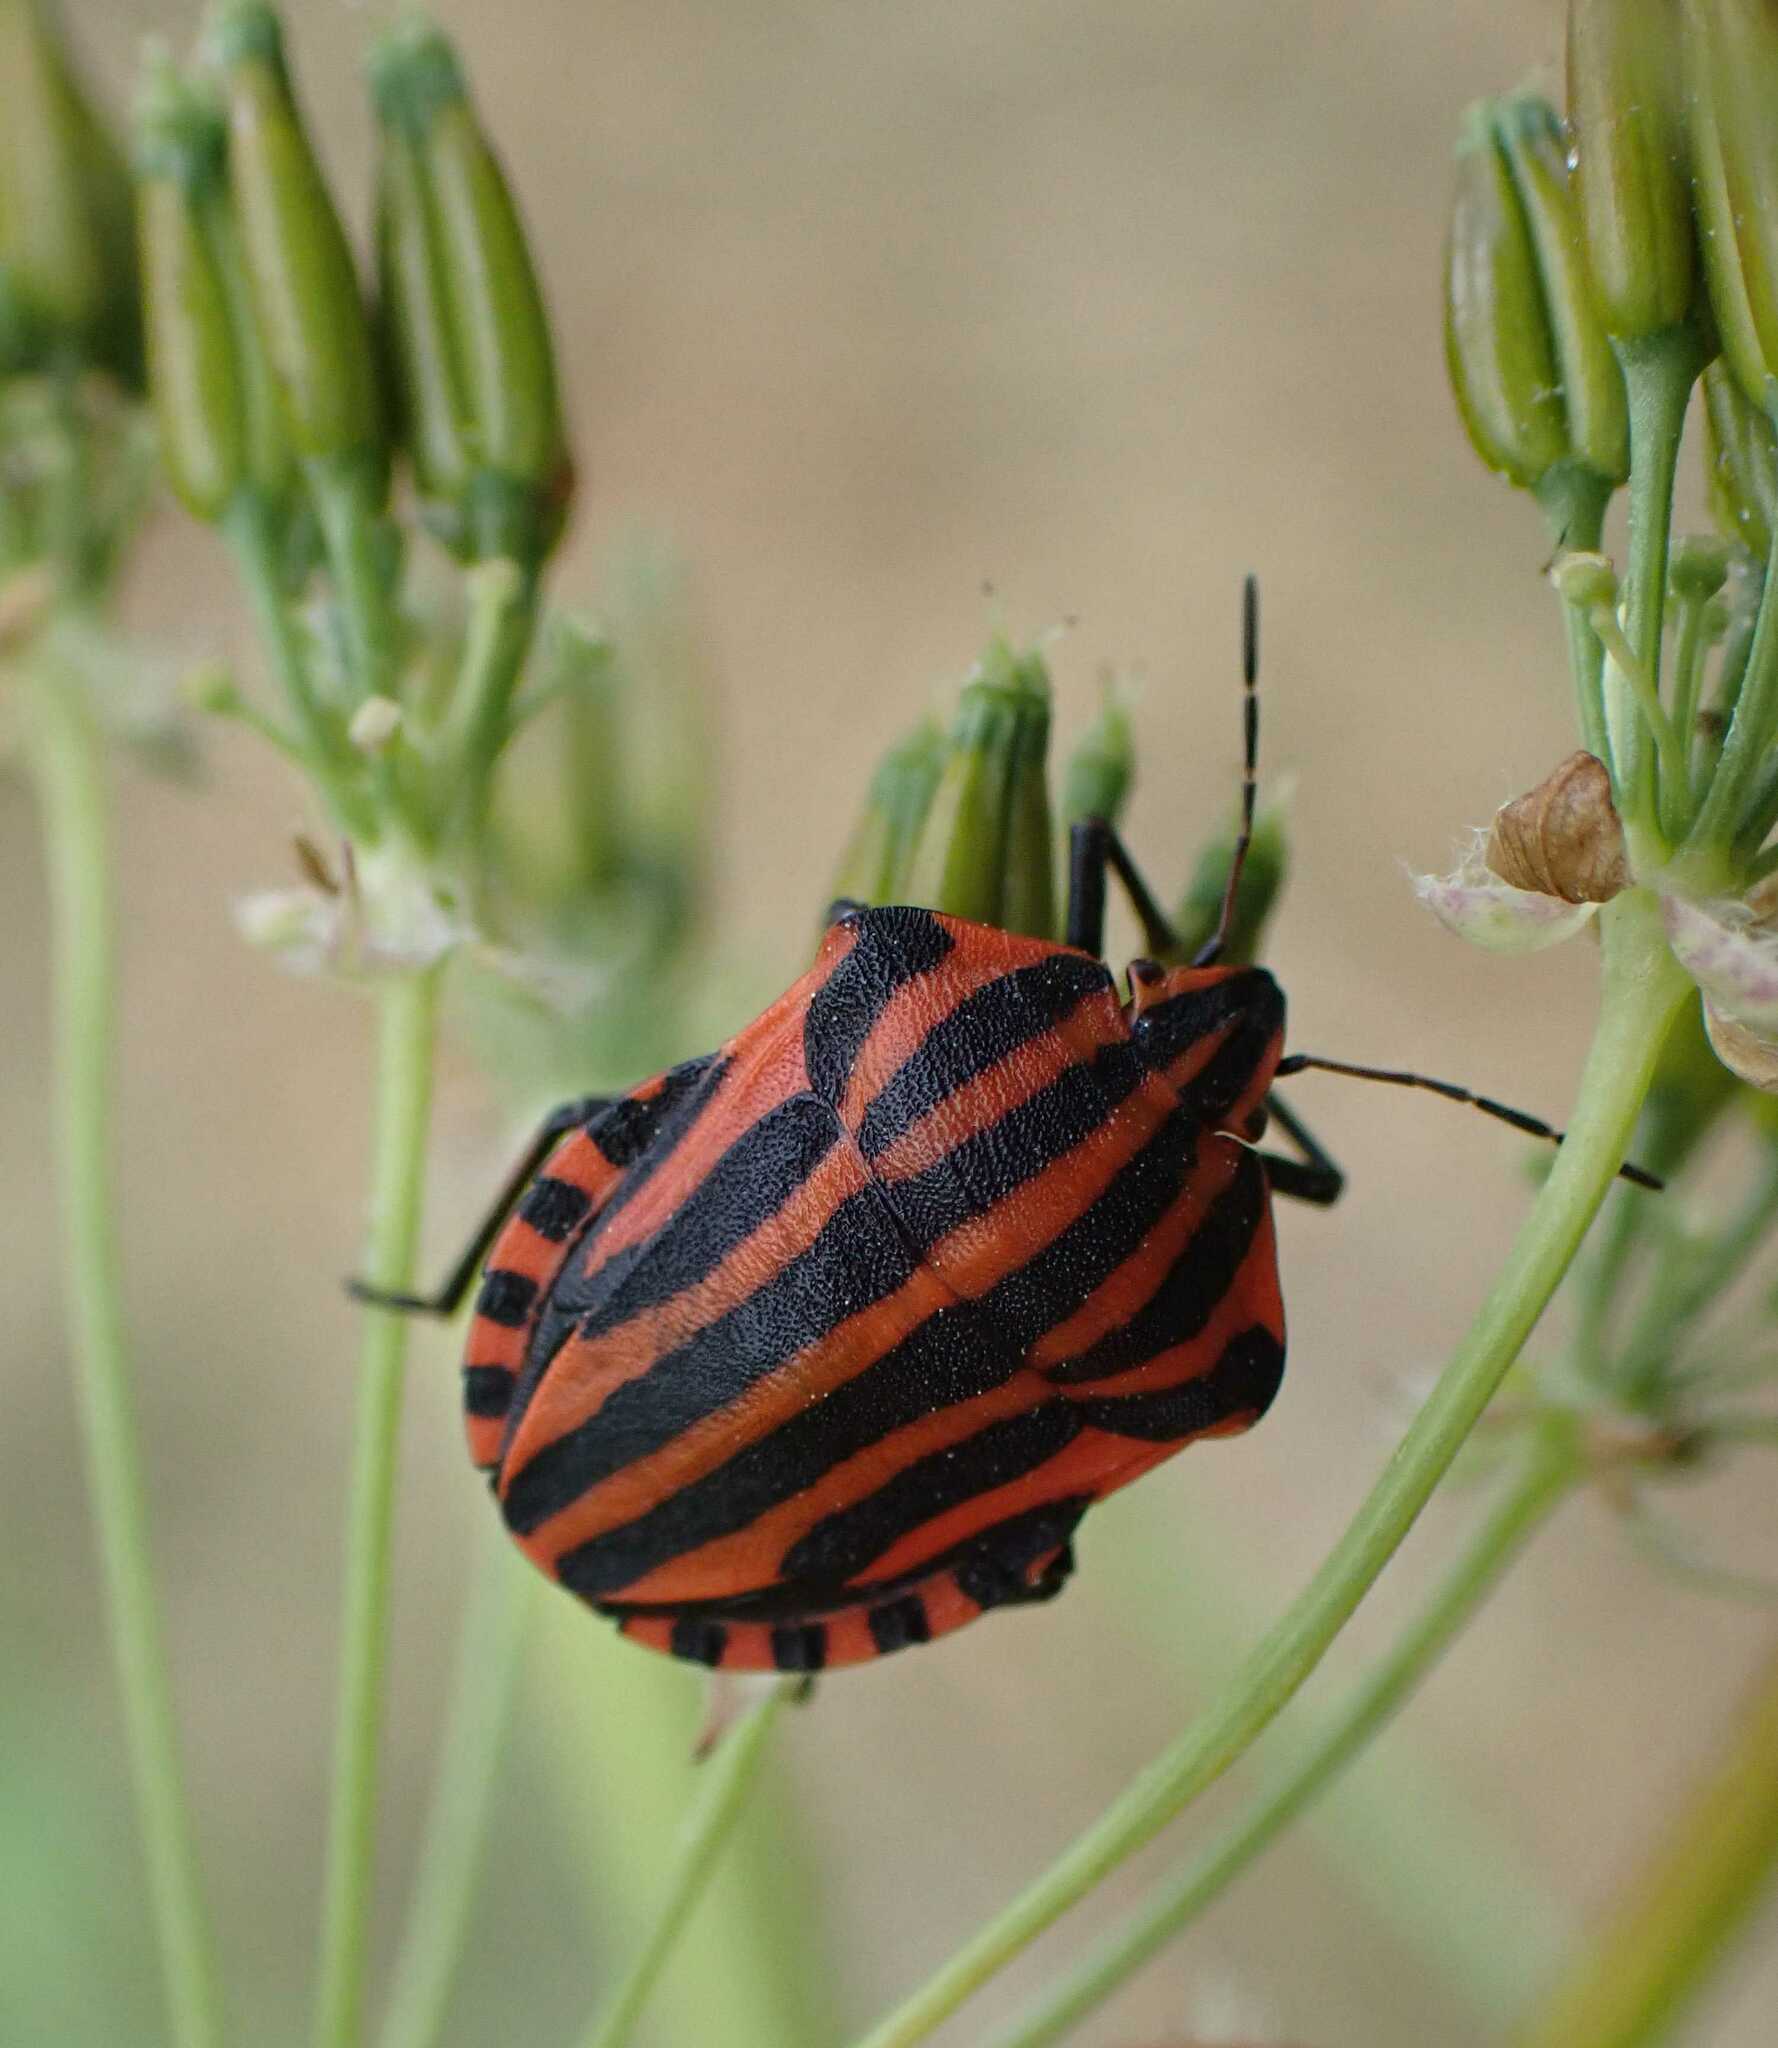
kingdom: Animalia
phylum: Arthropoda
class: Insecta
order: Hemiptera
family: Pentatomidae
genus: Graphosoma
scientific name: Graphosoma italicum
